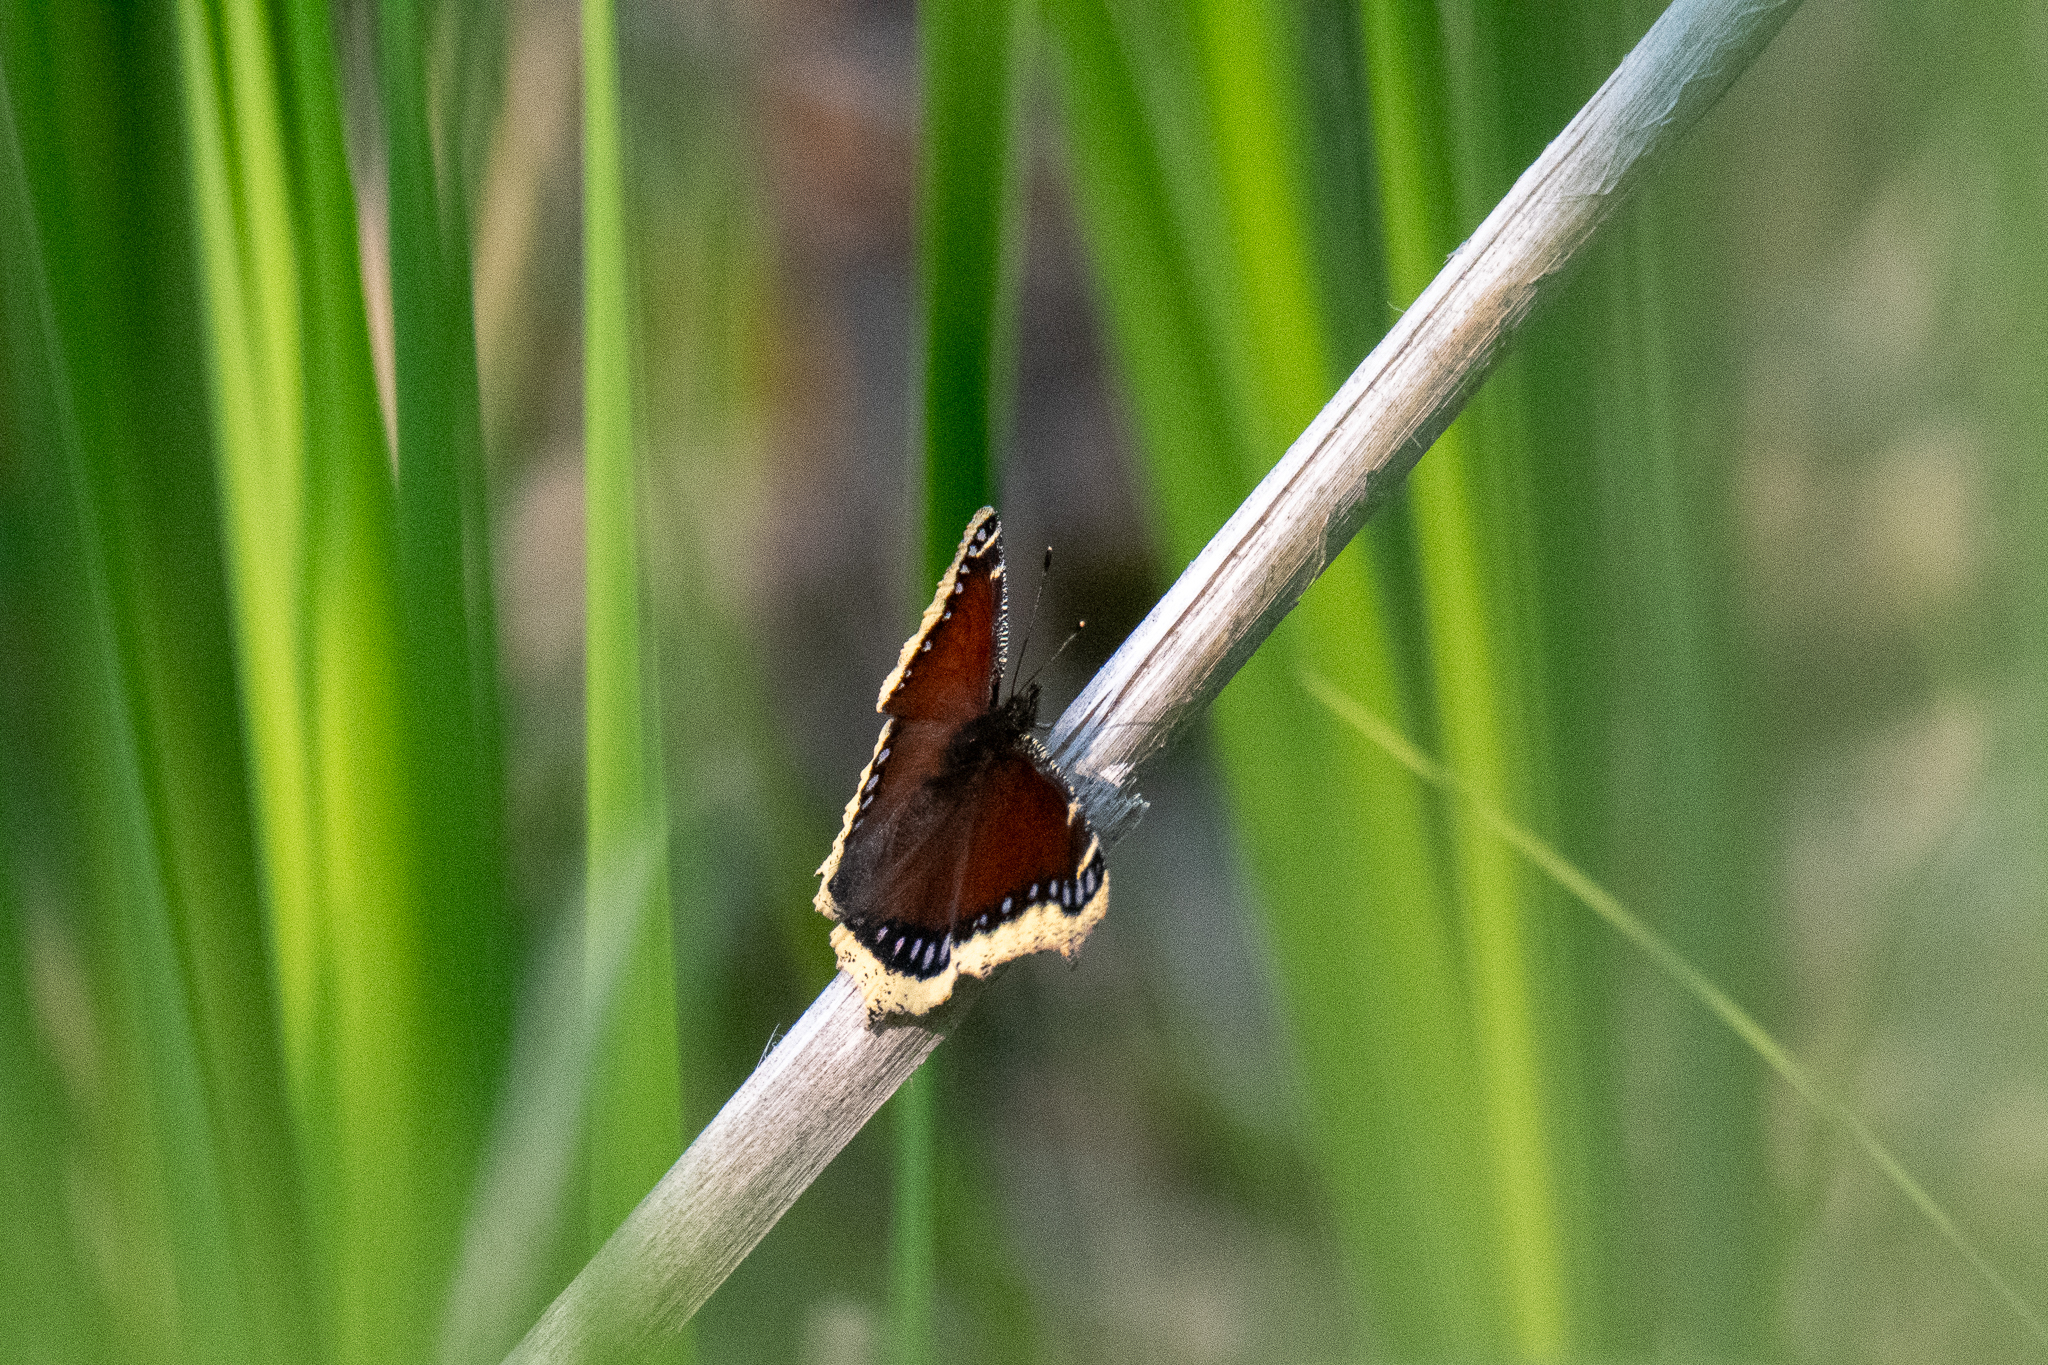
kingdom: Animalia
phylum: Arthropoda
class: Insecta
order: Lepidoptera
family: Nymphalidae
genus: Nymphalis
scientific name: Nymphalis antiopa
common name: Camberwell beauty
